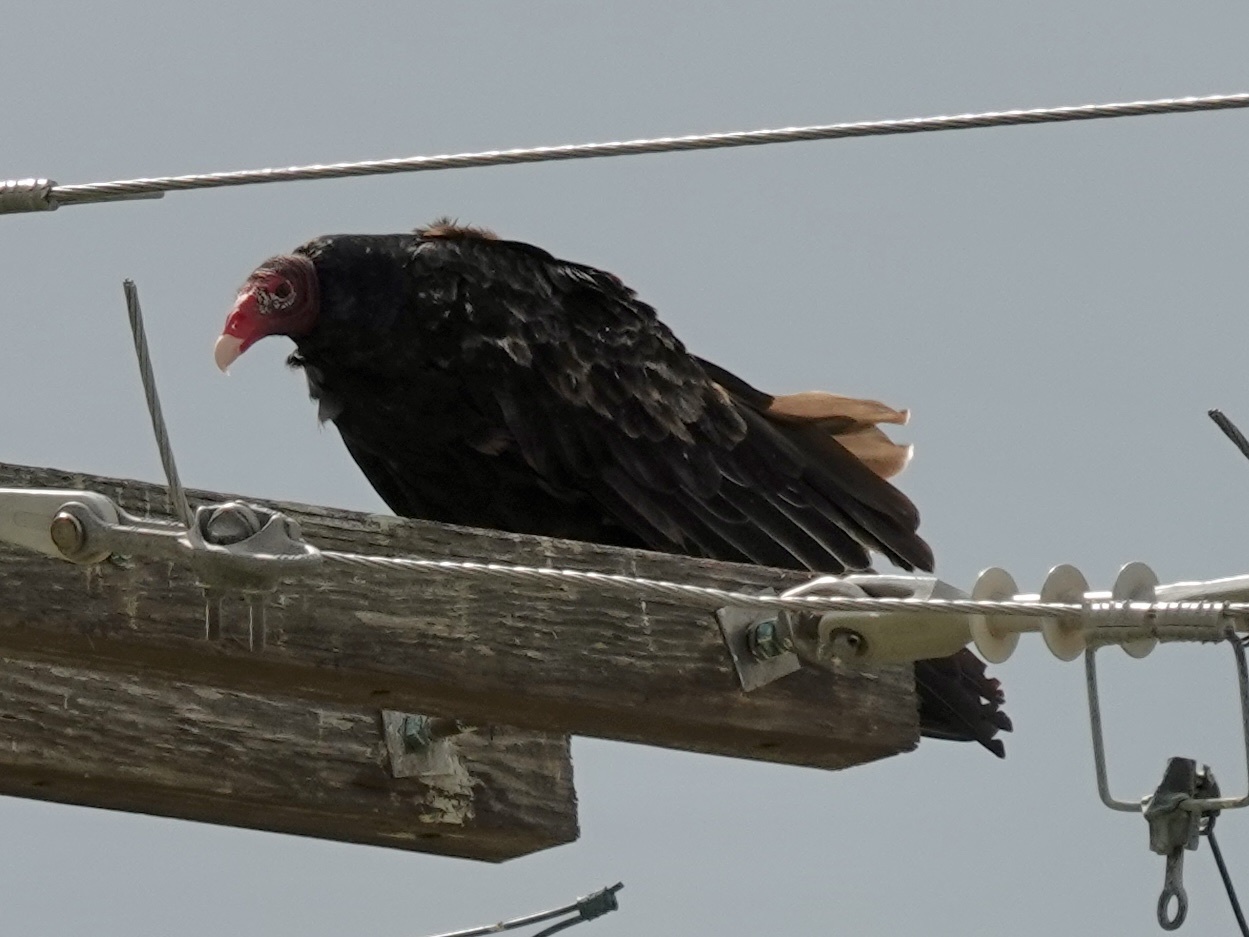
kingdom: Animalia
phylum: Chordata
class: Aves
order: Accipitriformes
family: Cathartidae
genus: Cathartes
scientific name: Cathartes aura
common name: Turkey vulture
